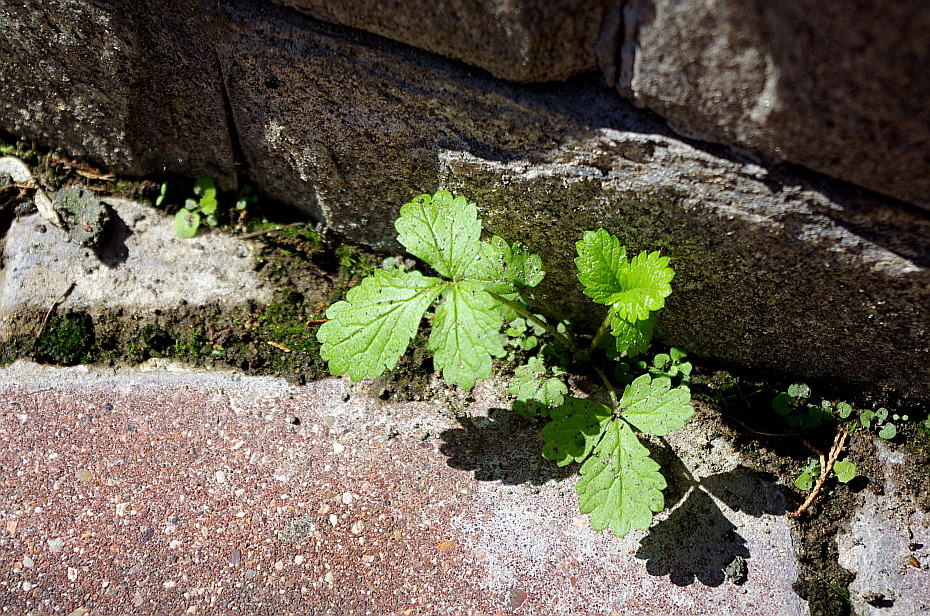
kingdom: Plantae
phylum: Tracheophyta
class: Magnoliopsida
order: Rosales
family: Rosaceae
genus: Potentilla
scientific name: Potentilla norvegica
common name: Ternate-leaved cinquefoil
